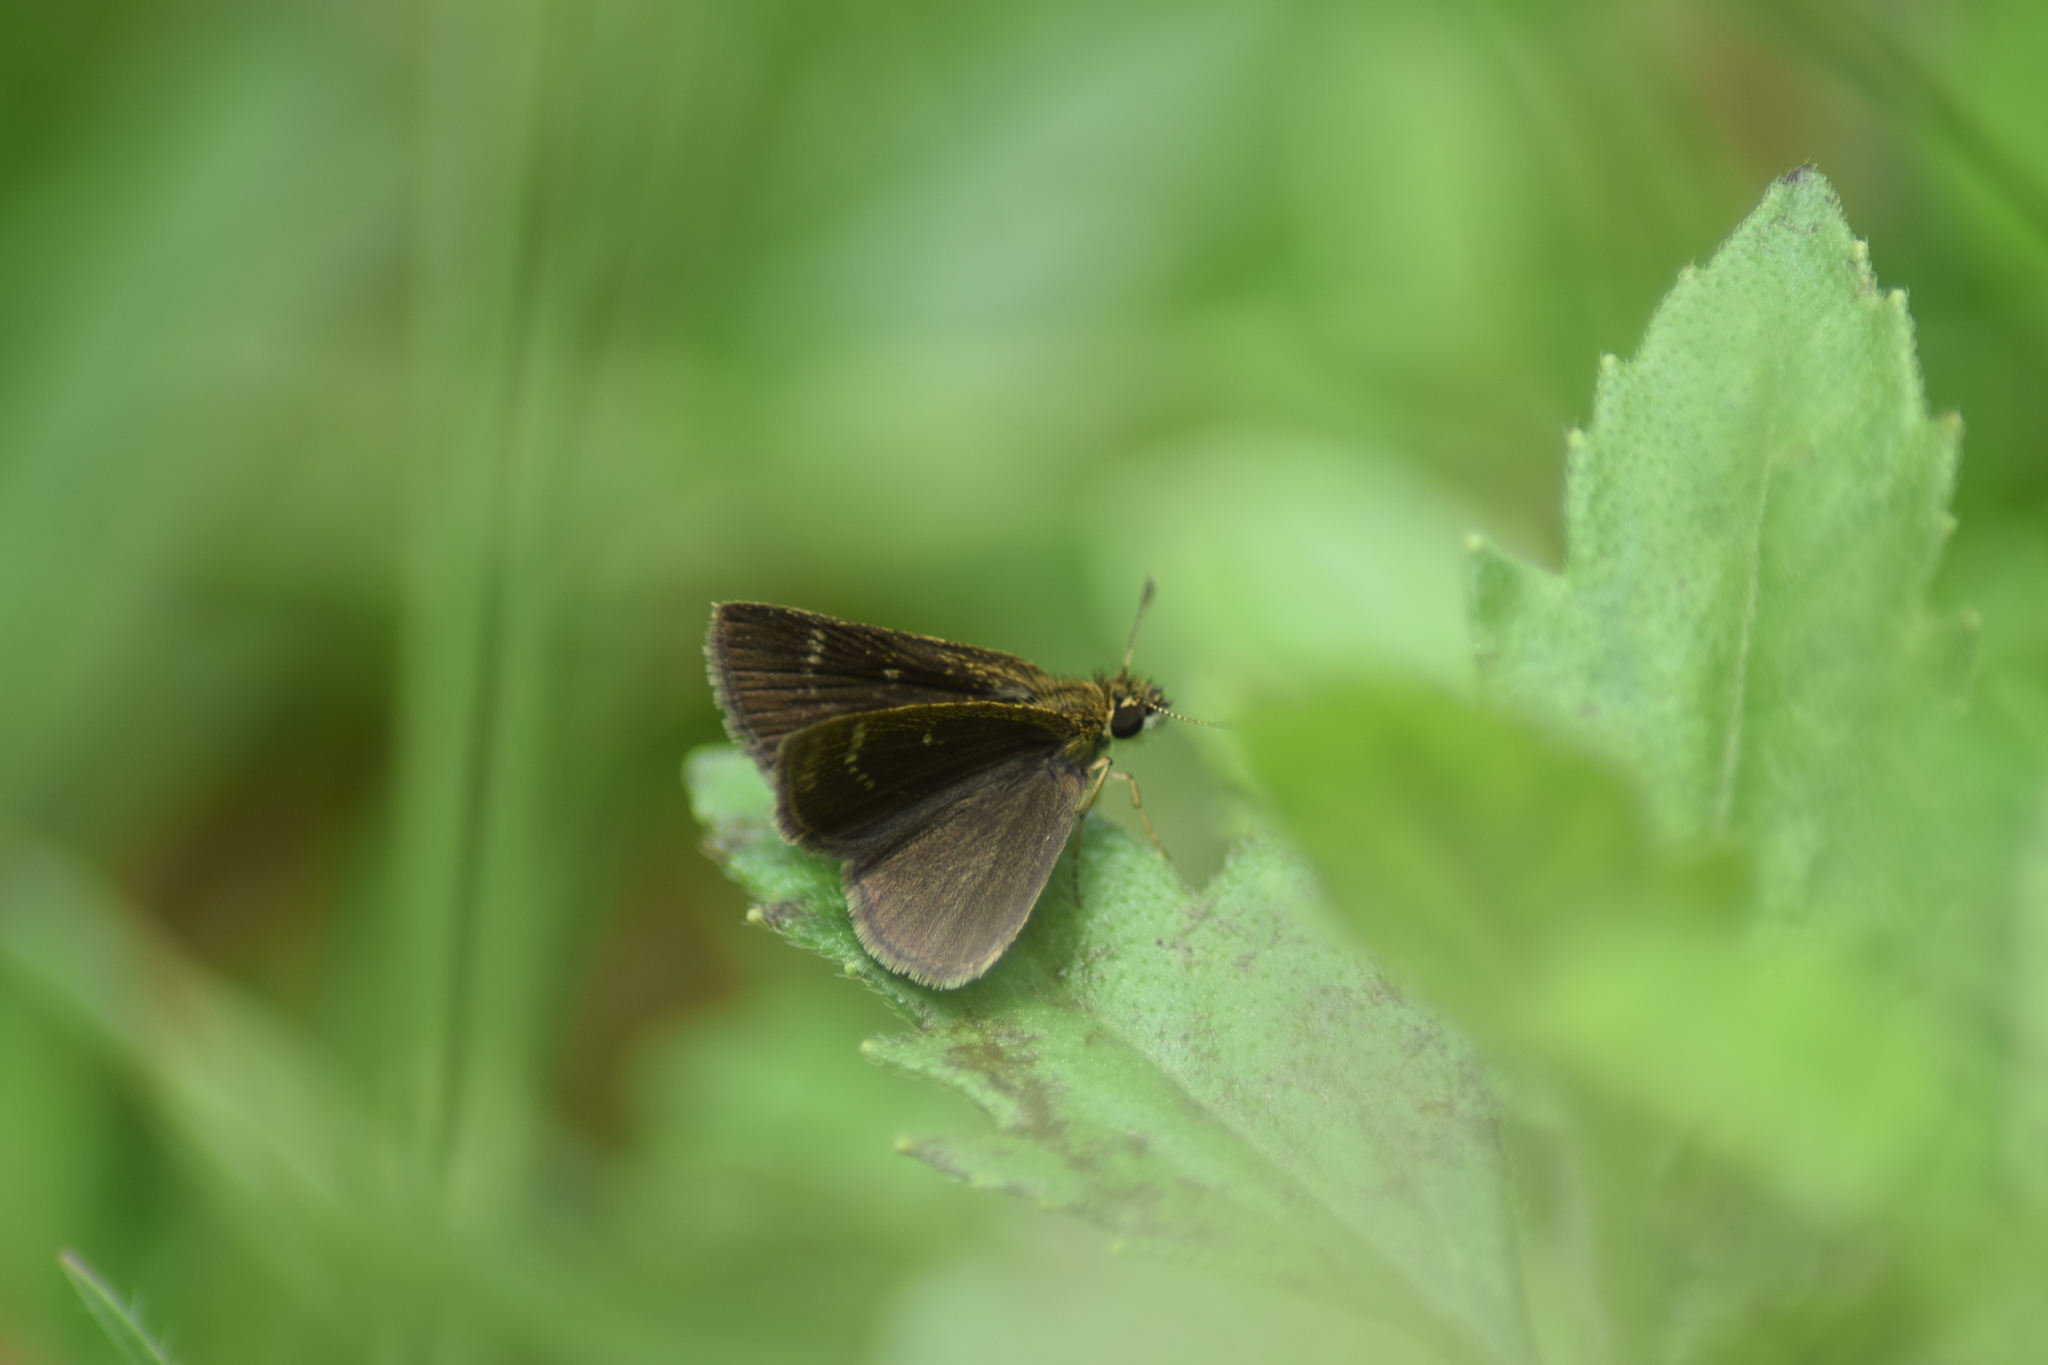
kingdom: Animalia
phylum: Arthropoda
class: Insecta
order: Lepidoptera
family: Hesperiidae
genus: Aeromachus
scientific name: Aeromachus pygmaeus
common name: Pygmy scrub hopper
